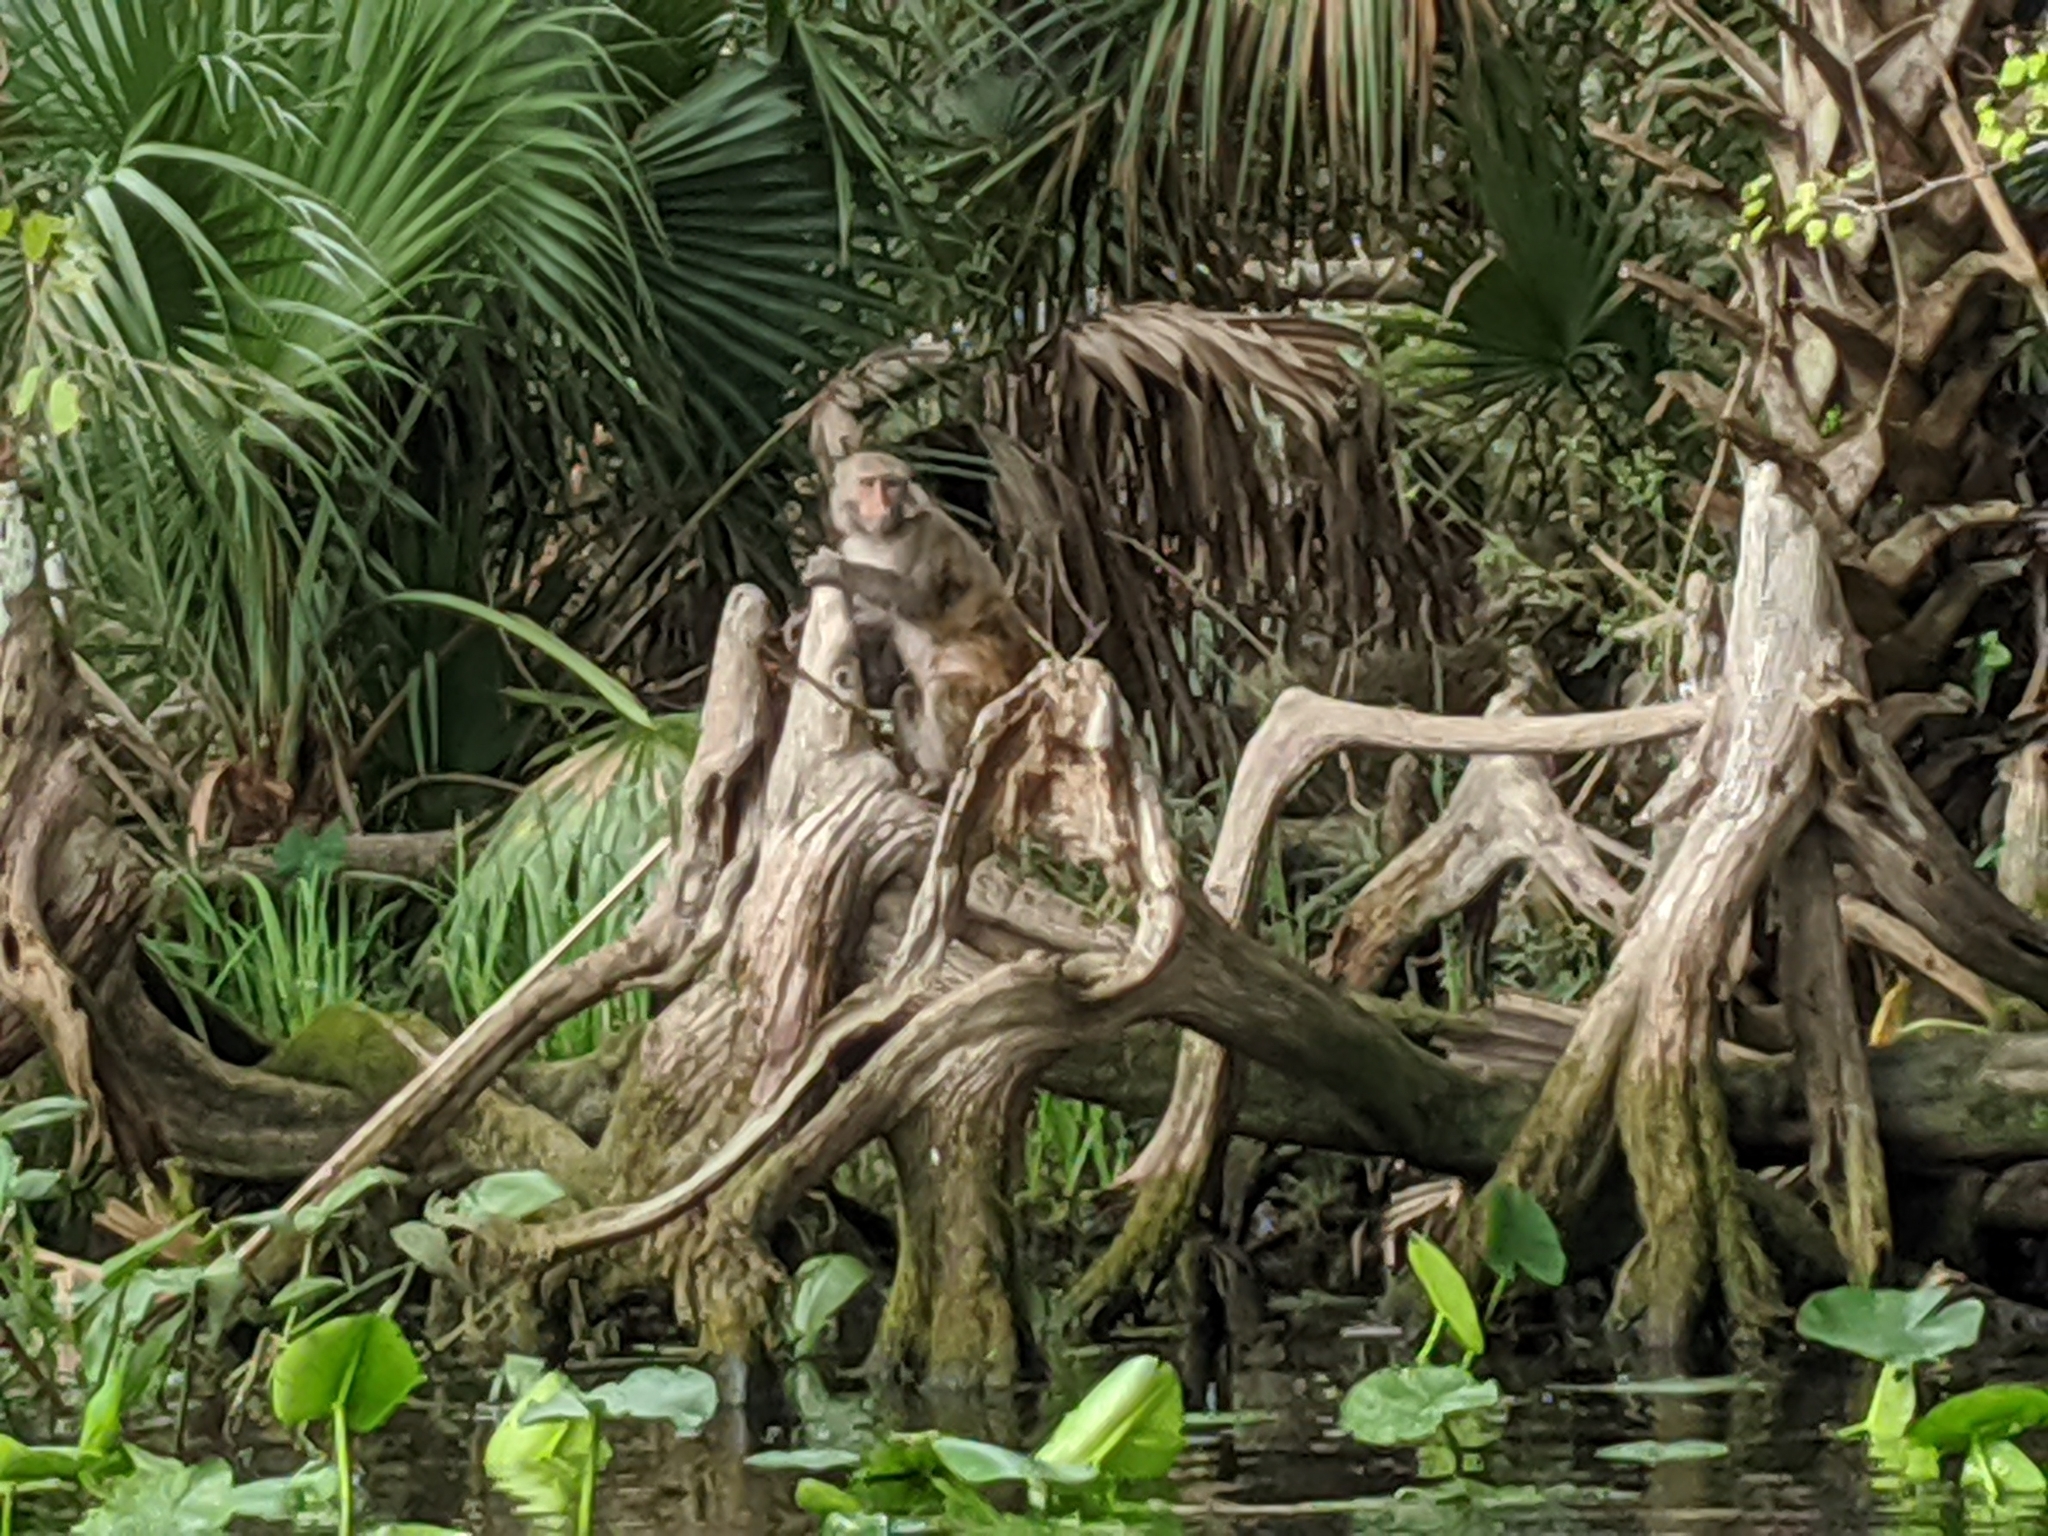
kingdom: Animalia
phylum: Chordata
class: Mammalia
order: Primates
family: Cercopithecidae
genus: Macaca
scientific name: Macaca mulatta
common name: Rhesus monkey
